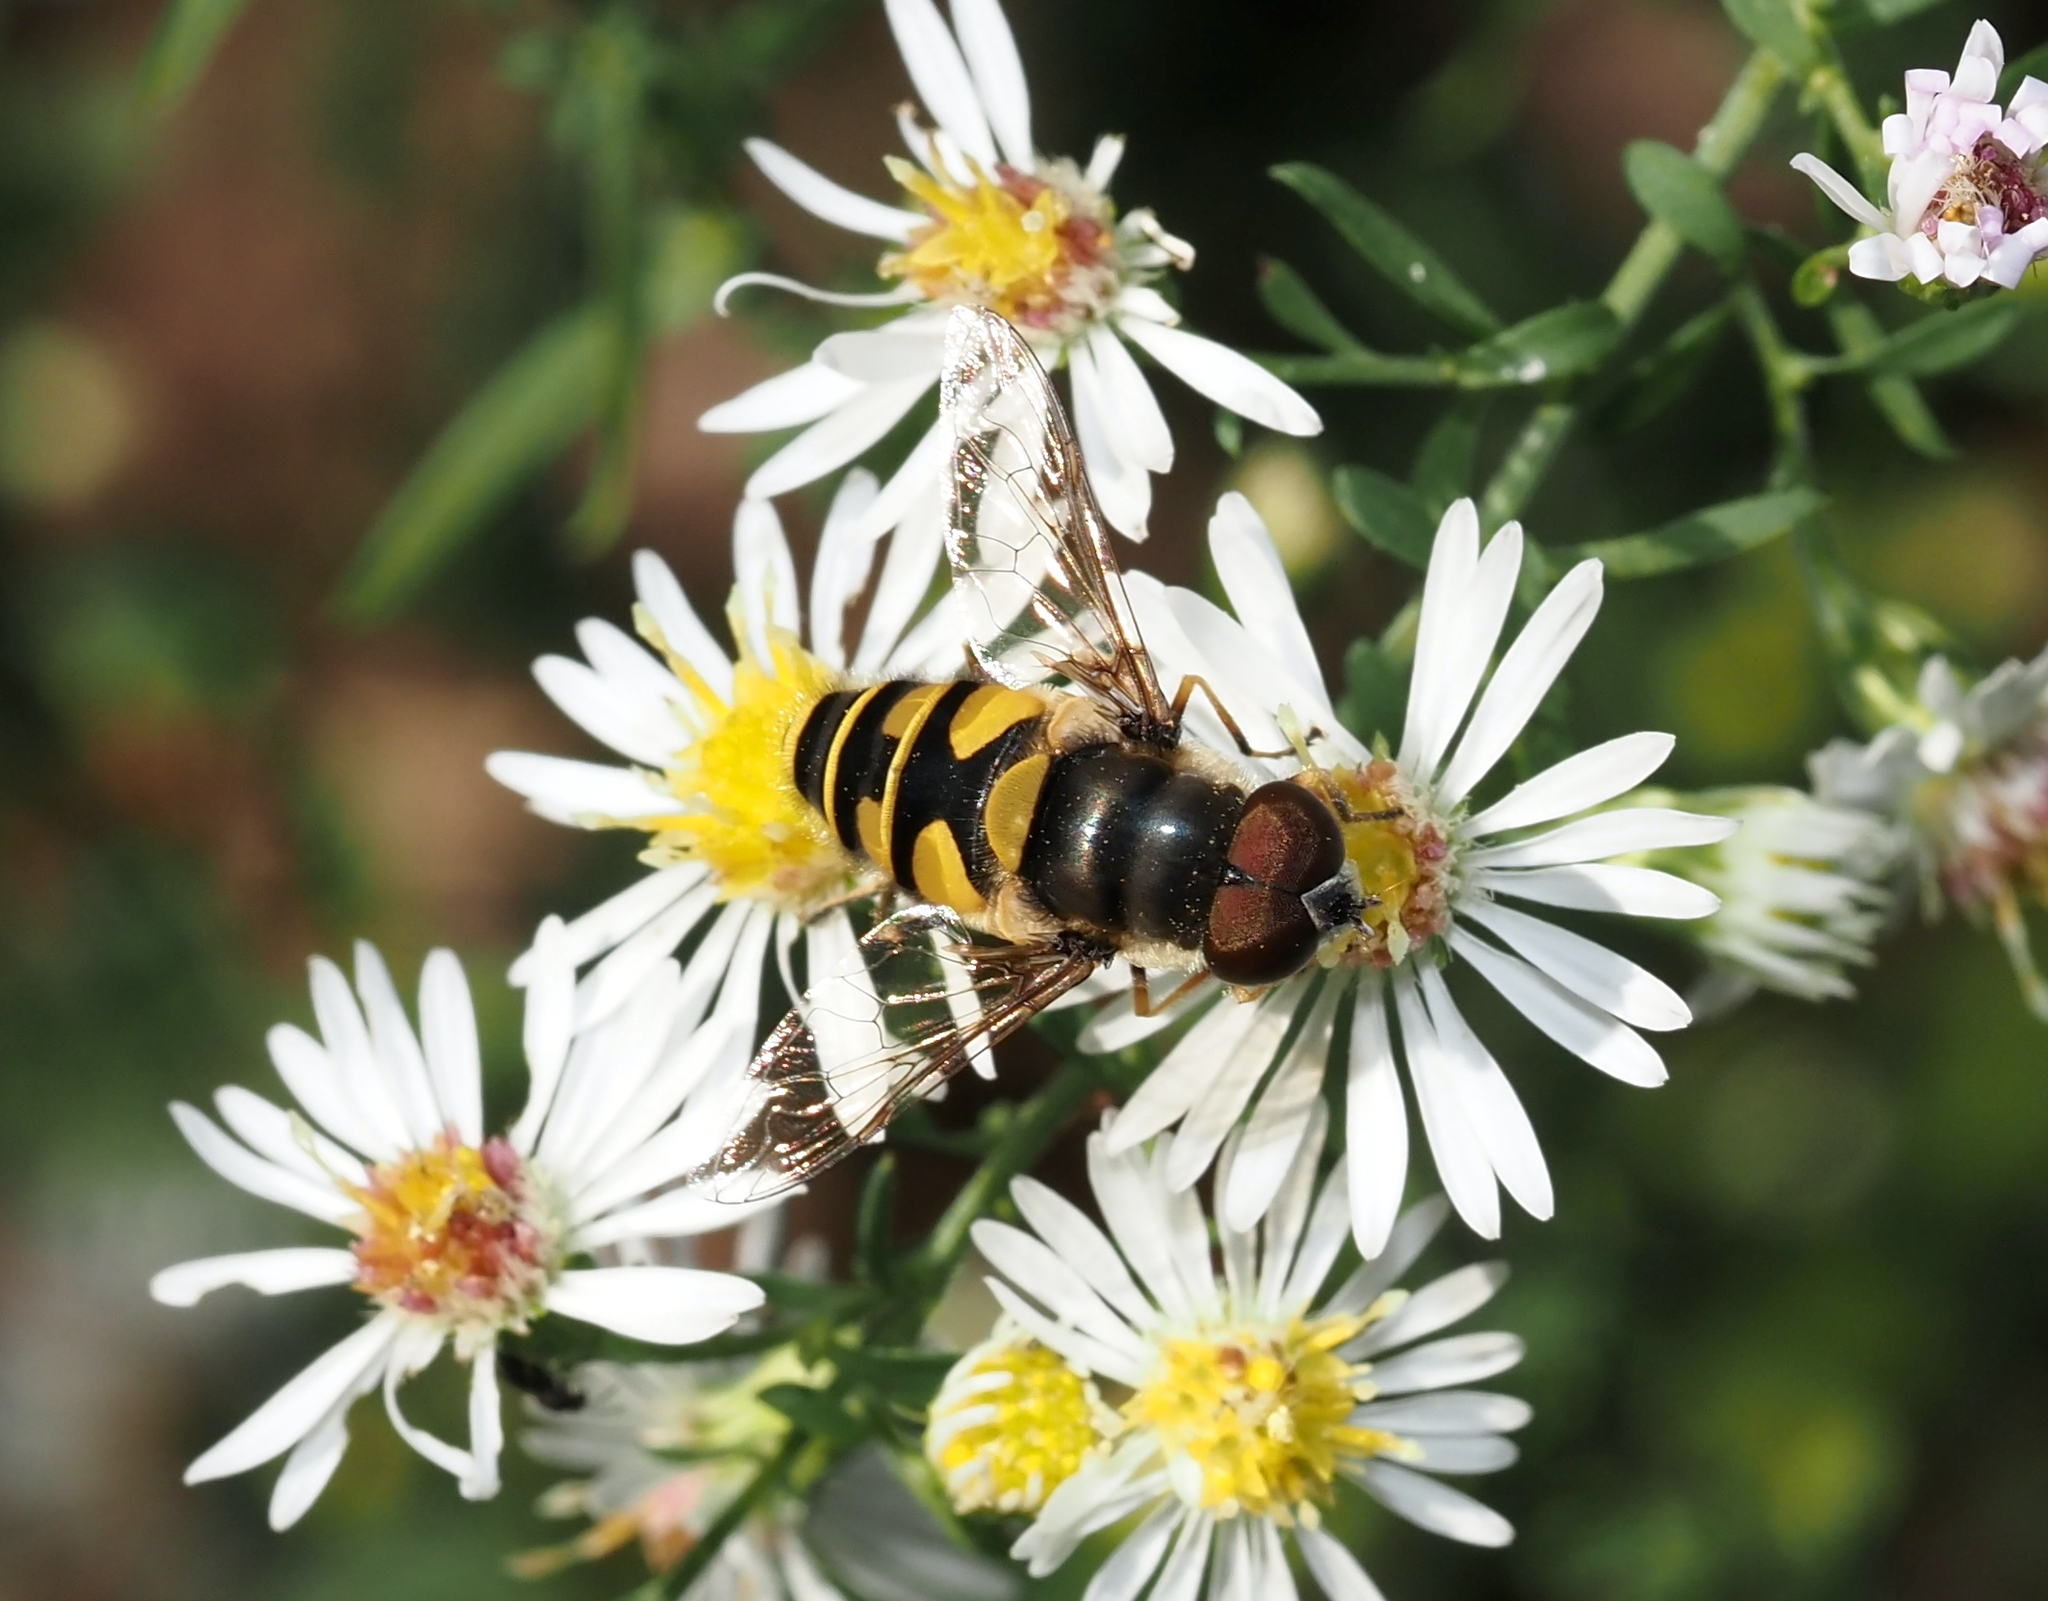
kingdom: Animalia
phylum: Arthropoda
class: Insecta
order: Diptera
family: Syrphidae
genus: Eristalis
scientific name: Eristalis transversa
